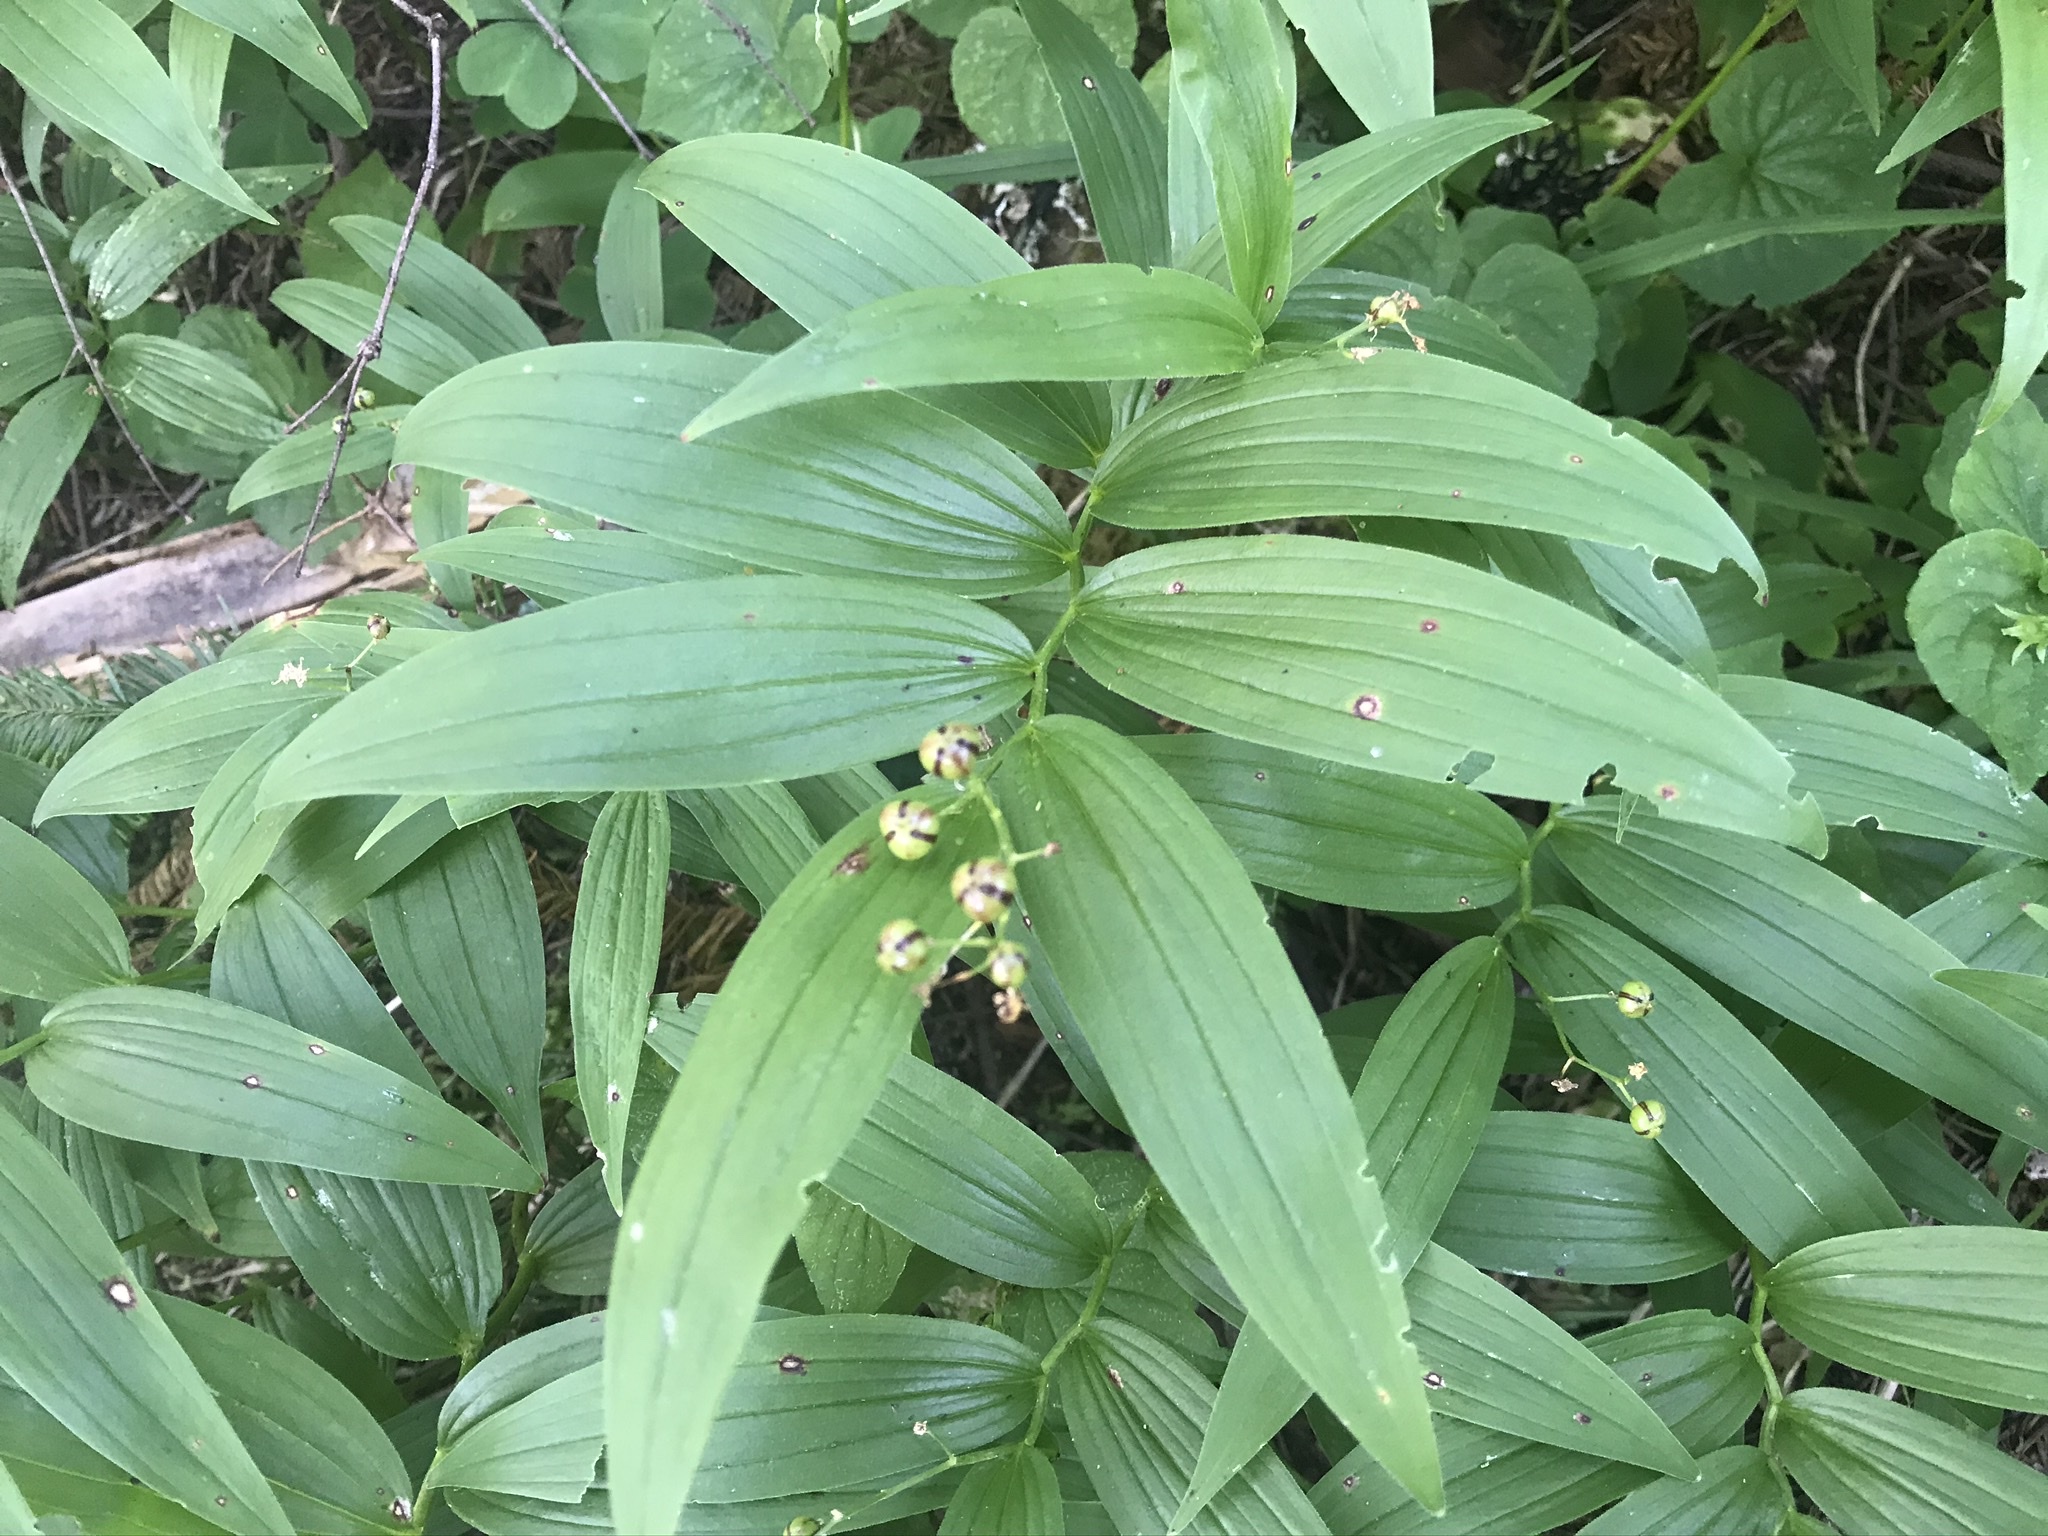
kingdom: Plantae
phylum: Tracheophyta
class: Liliopsida
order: Asparagales
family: Asparagaceae
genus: Maianthemum
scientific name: Maianthemum stellatum
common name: Little false solomon's seal
